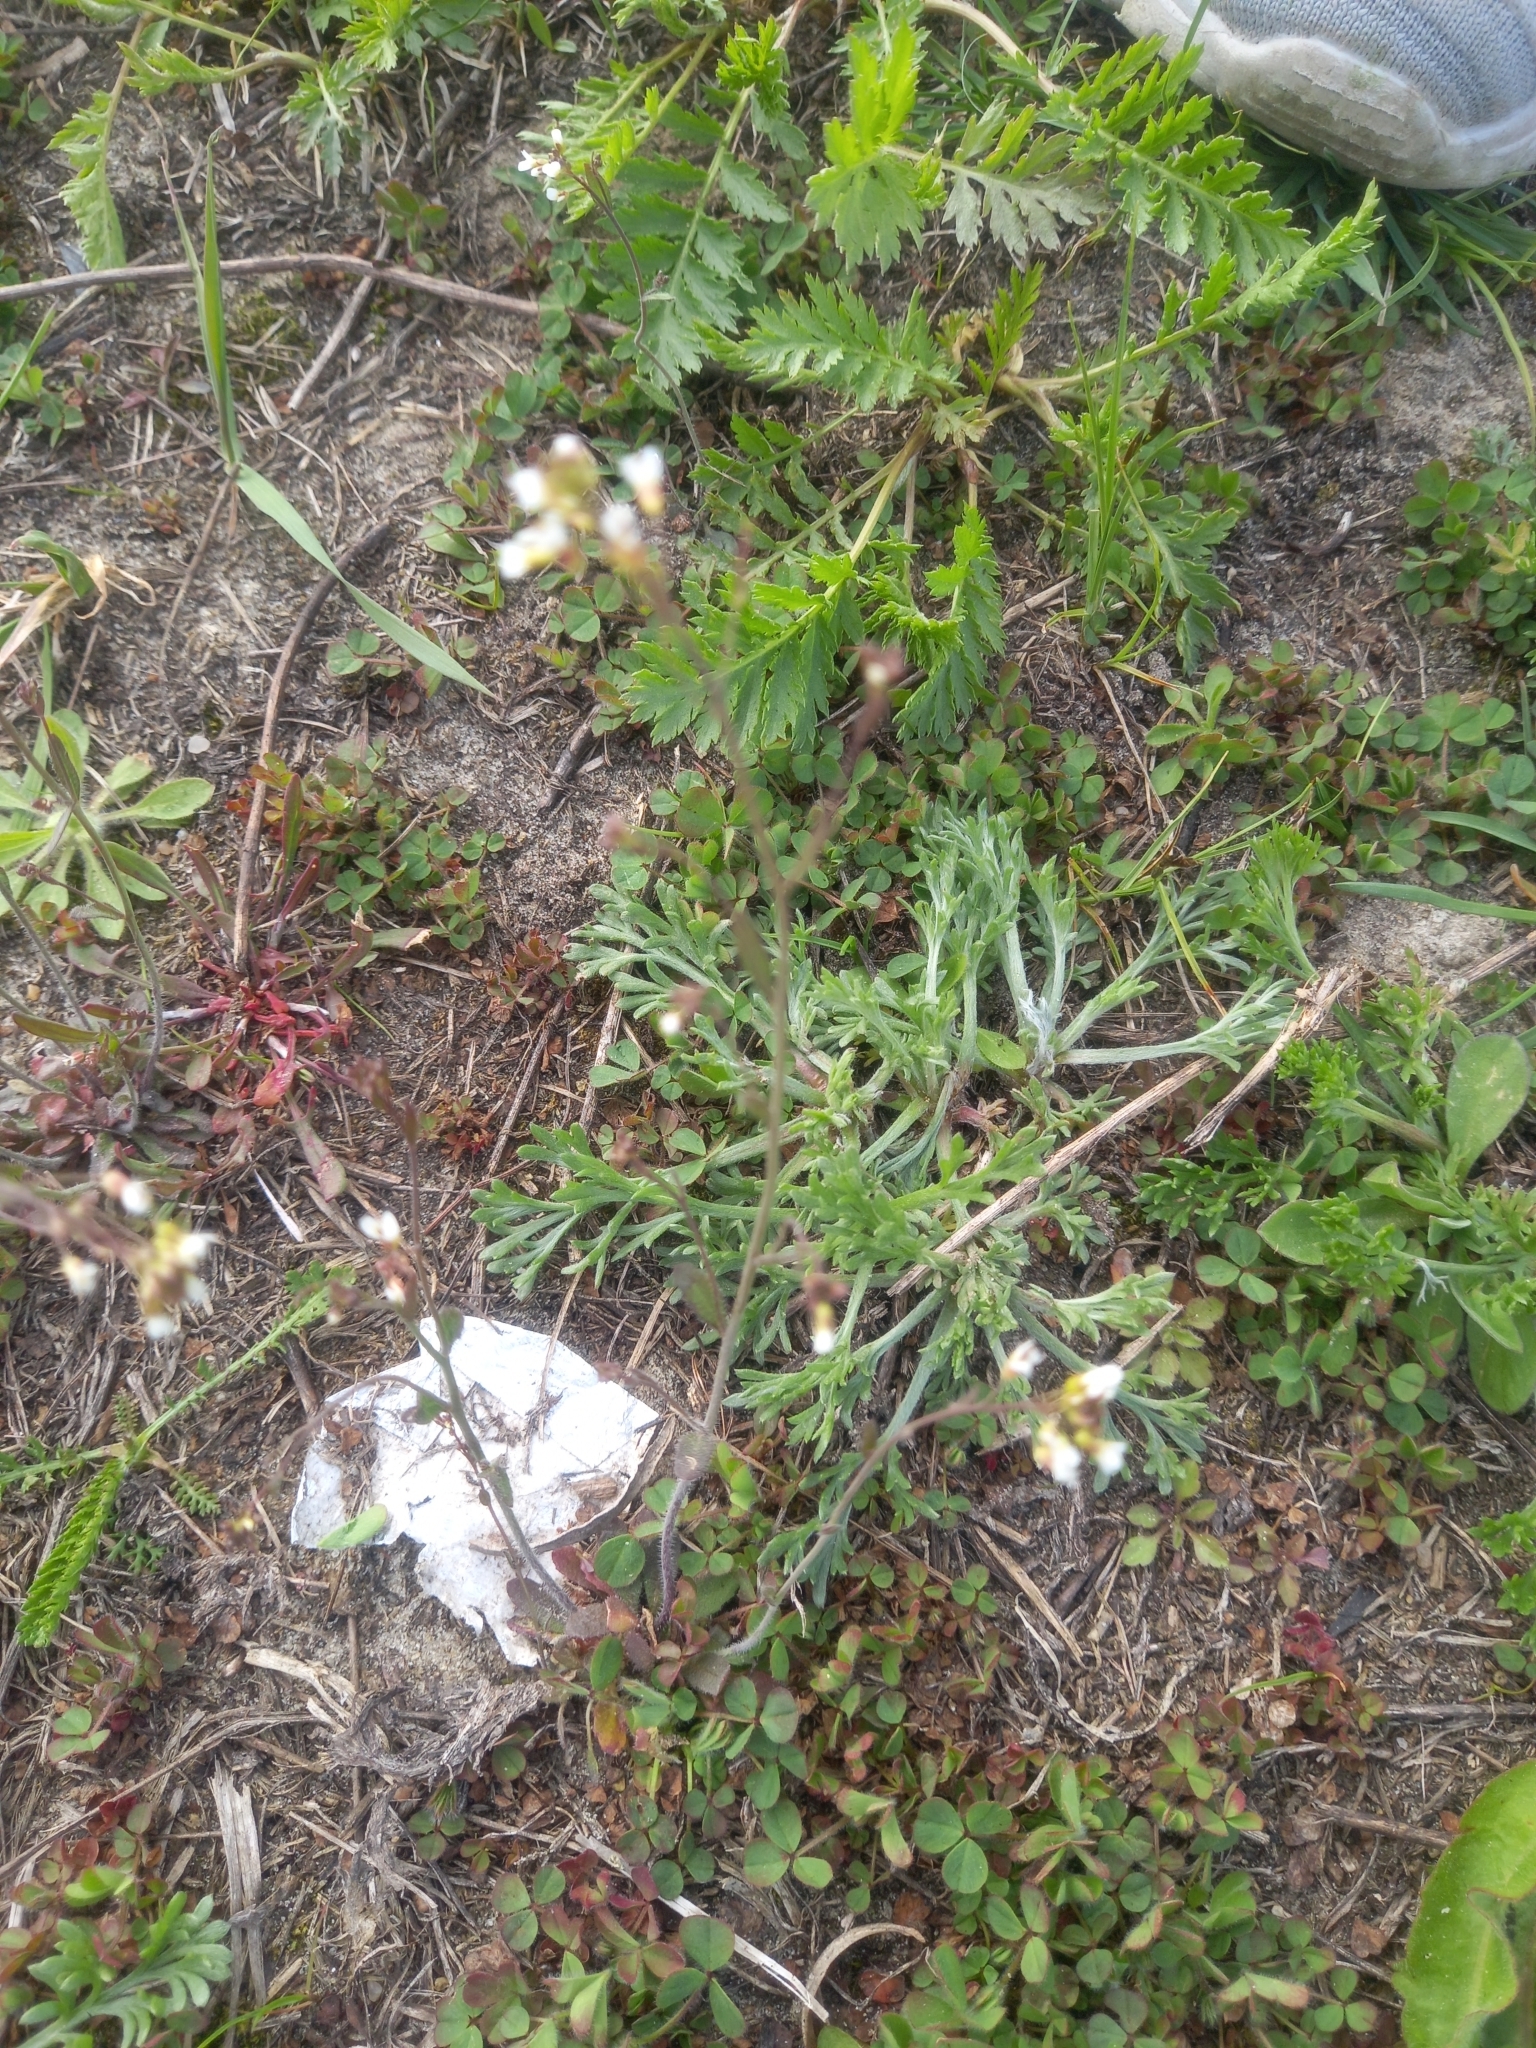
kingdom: Plantae
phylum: Tracheophyta
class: Magnoliopsida
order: Brassicales
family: Brassicaceae
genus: Arabidopsis
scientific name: Arabidopsis thaliana
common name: Thale cress
